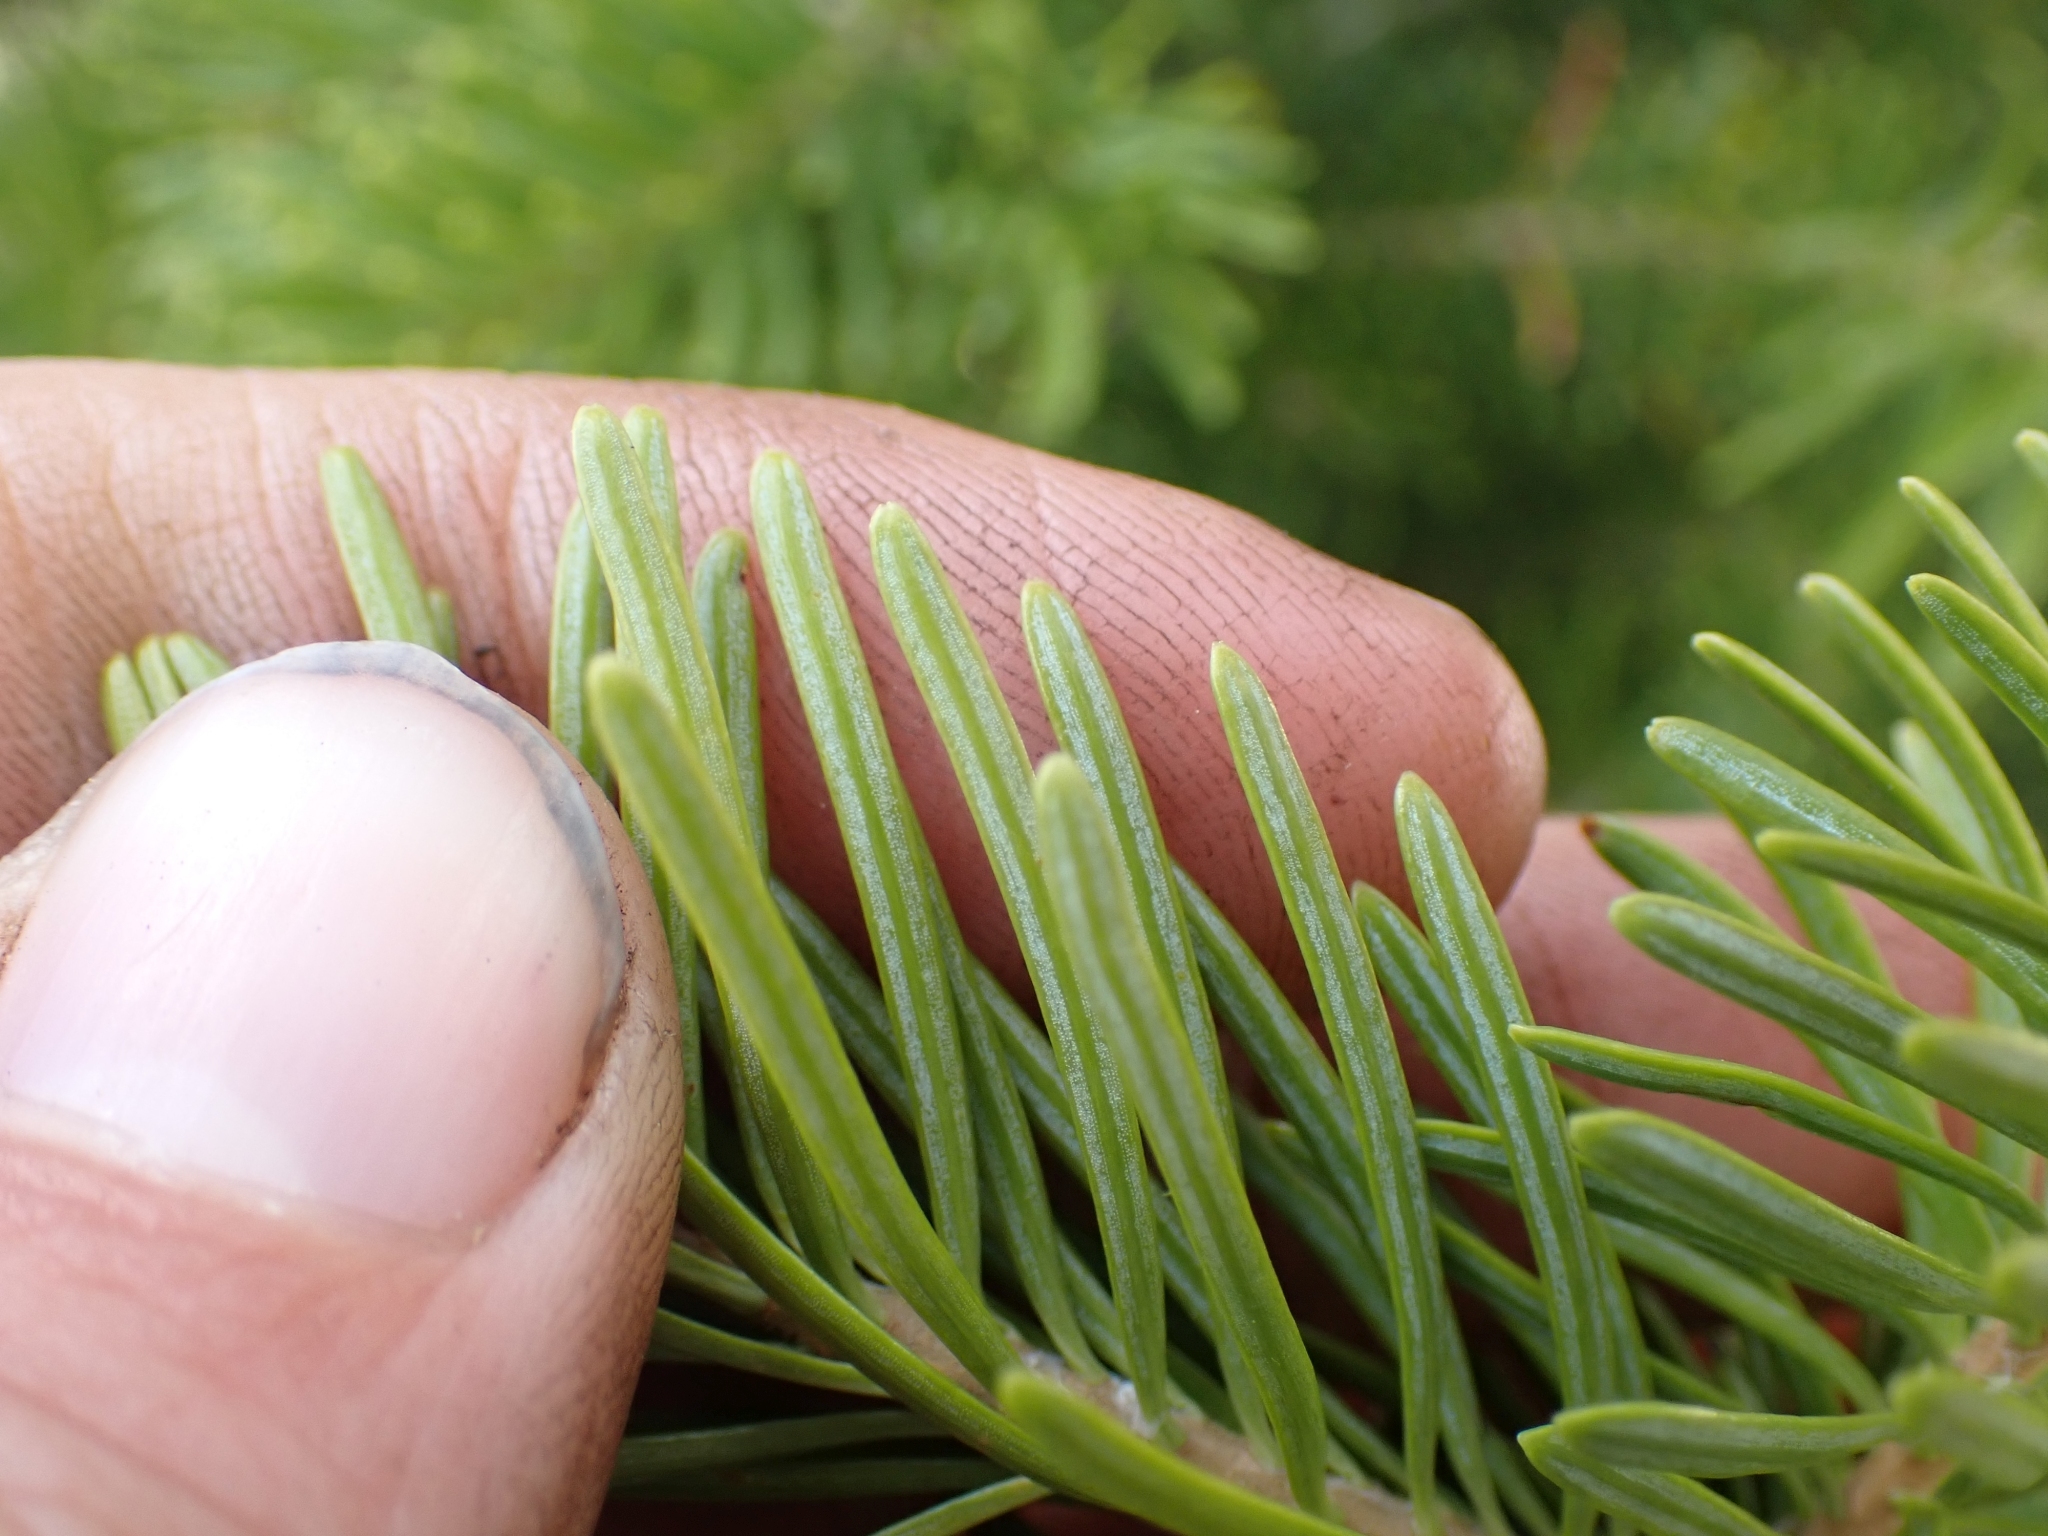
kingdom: Plantae
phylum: Tracheophyta
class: Pinopsida
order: Pinales
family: Pinaceae
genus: Abies
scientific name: Abies lasiocarpa
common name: Subalpine fir
